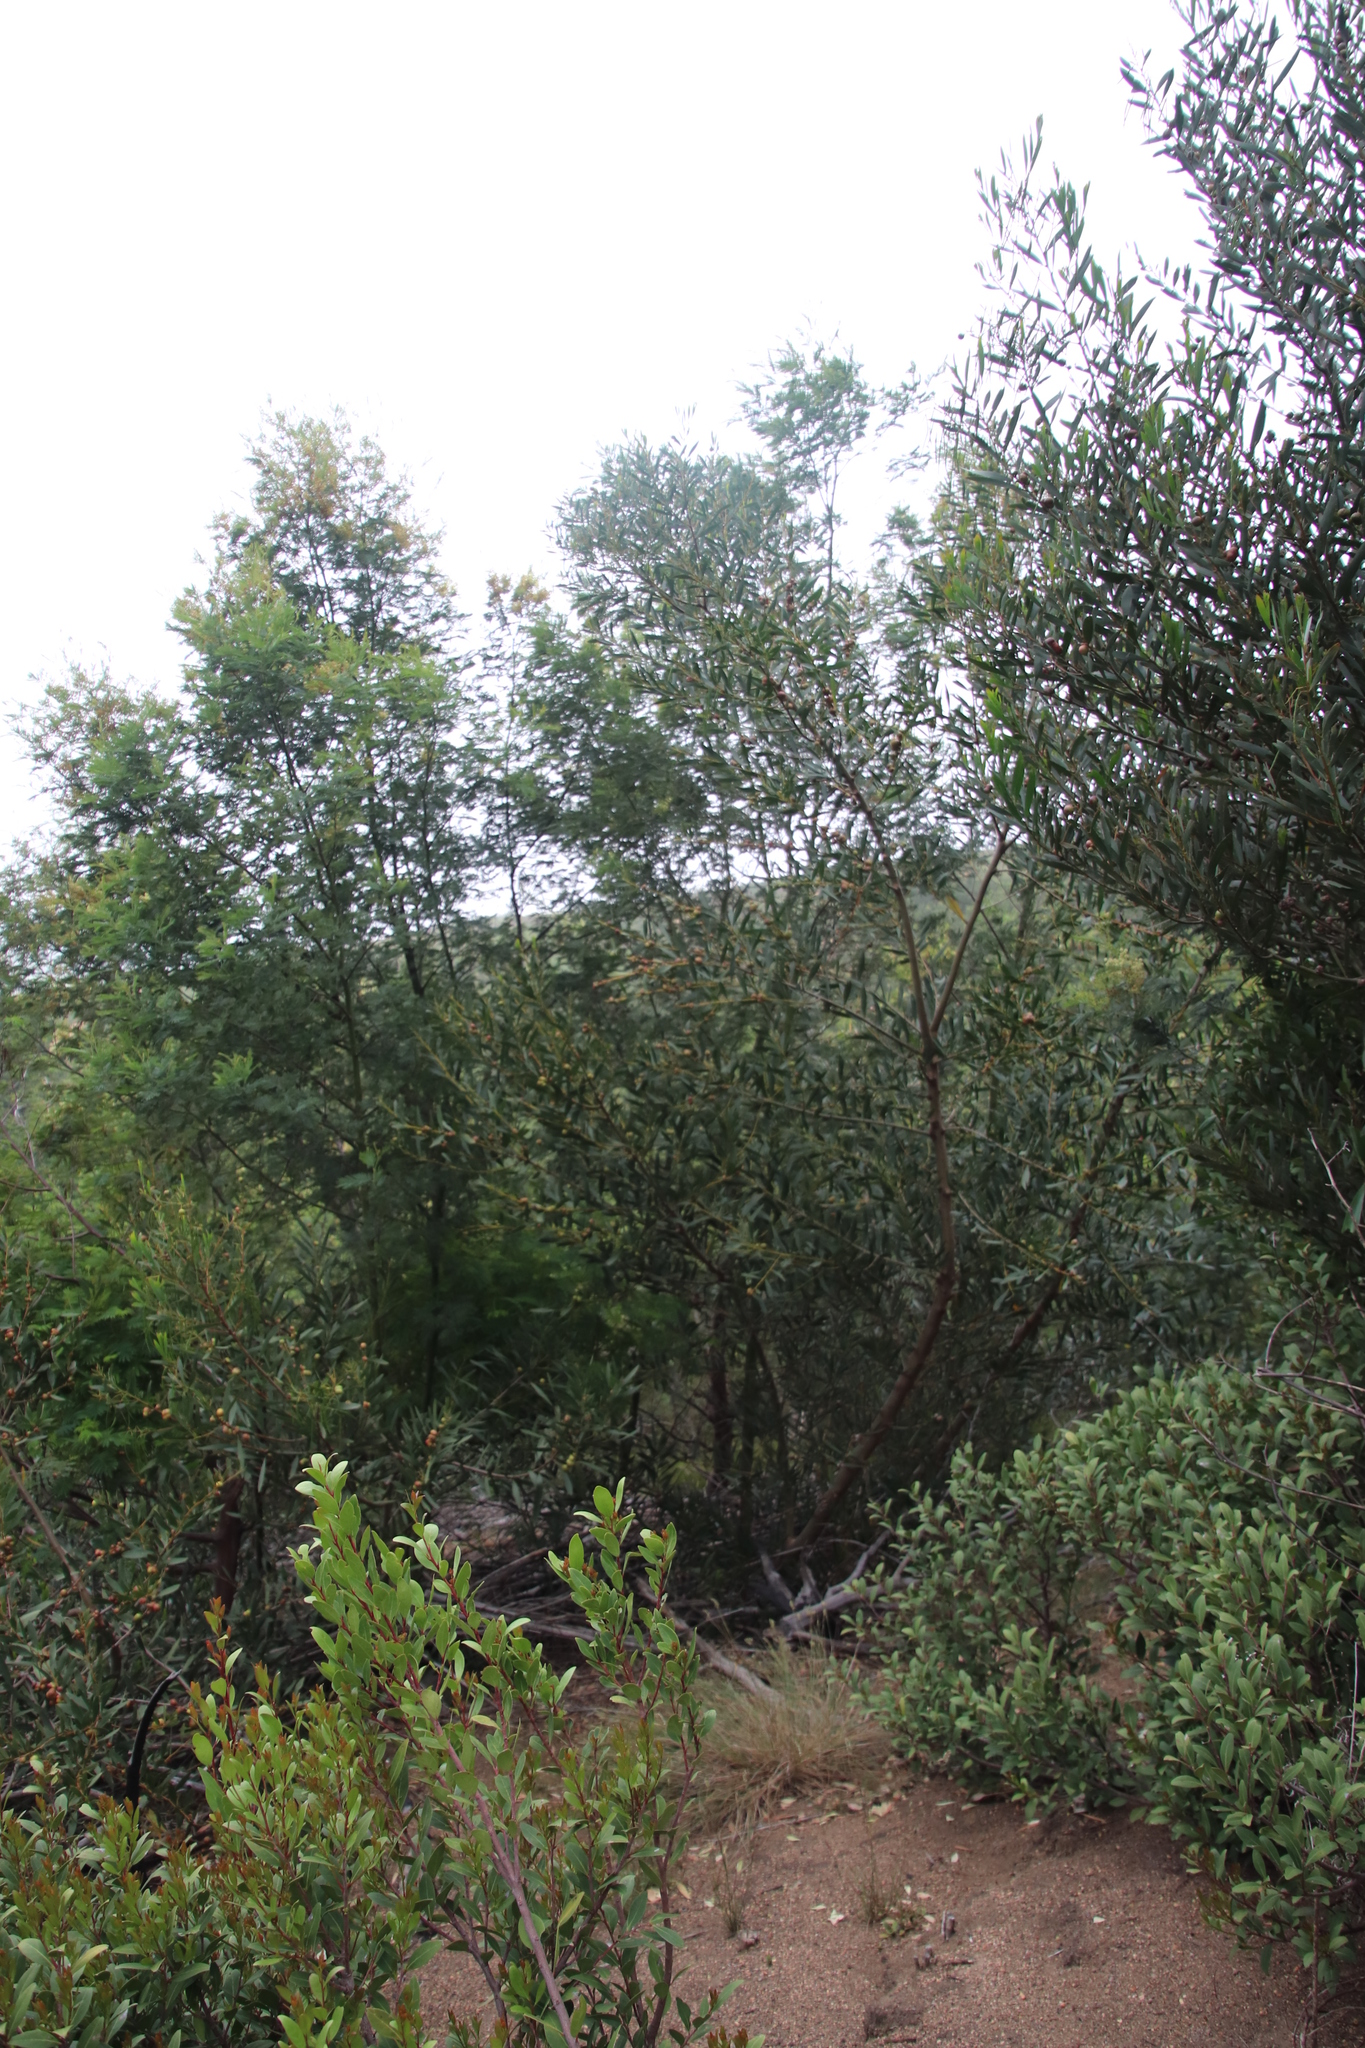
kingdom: Plantae
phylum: Tracheophyta
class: Magnoliopsida
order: Fabales
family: Fabaceae
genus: Acacia
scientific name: Acacia longifolia
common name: Sydney golden wattle
